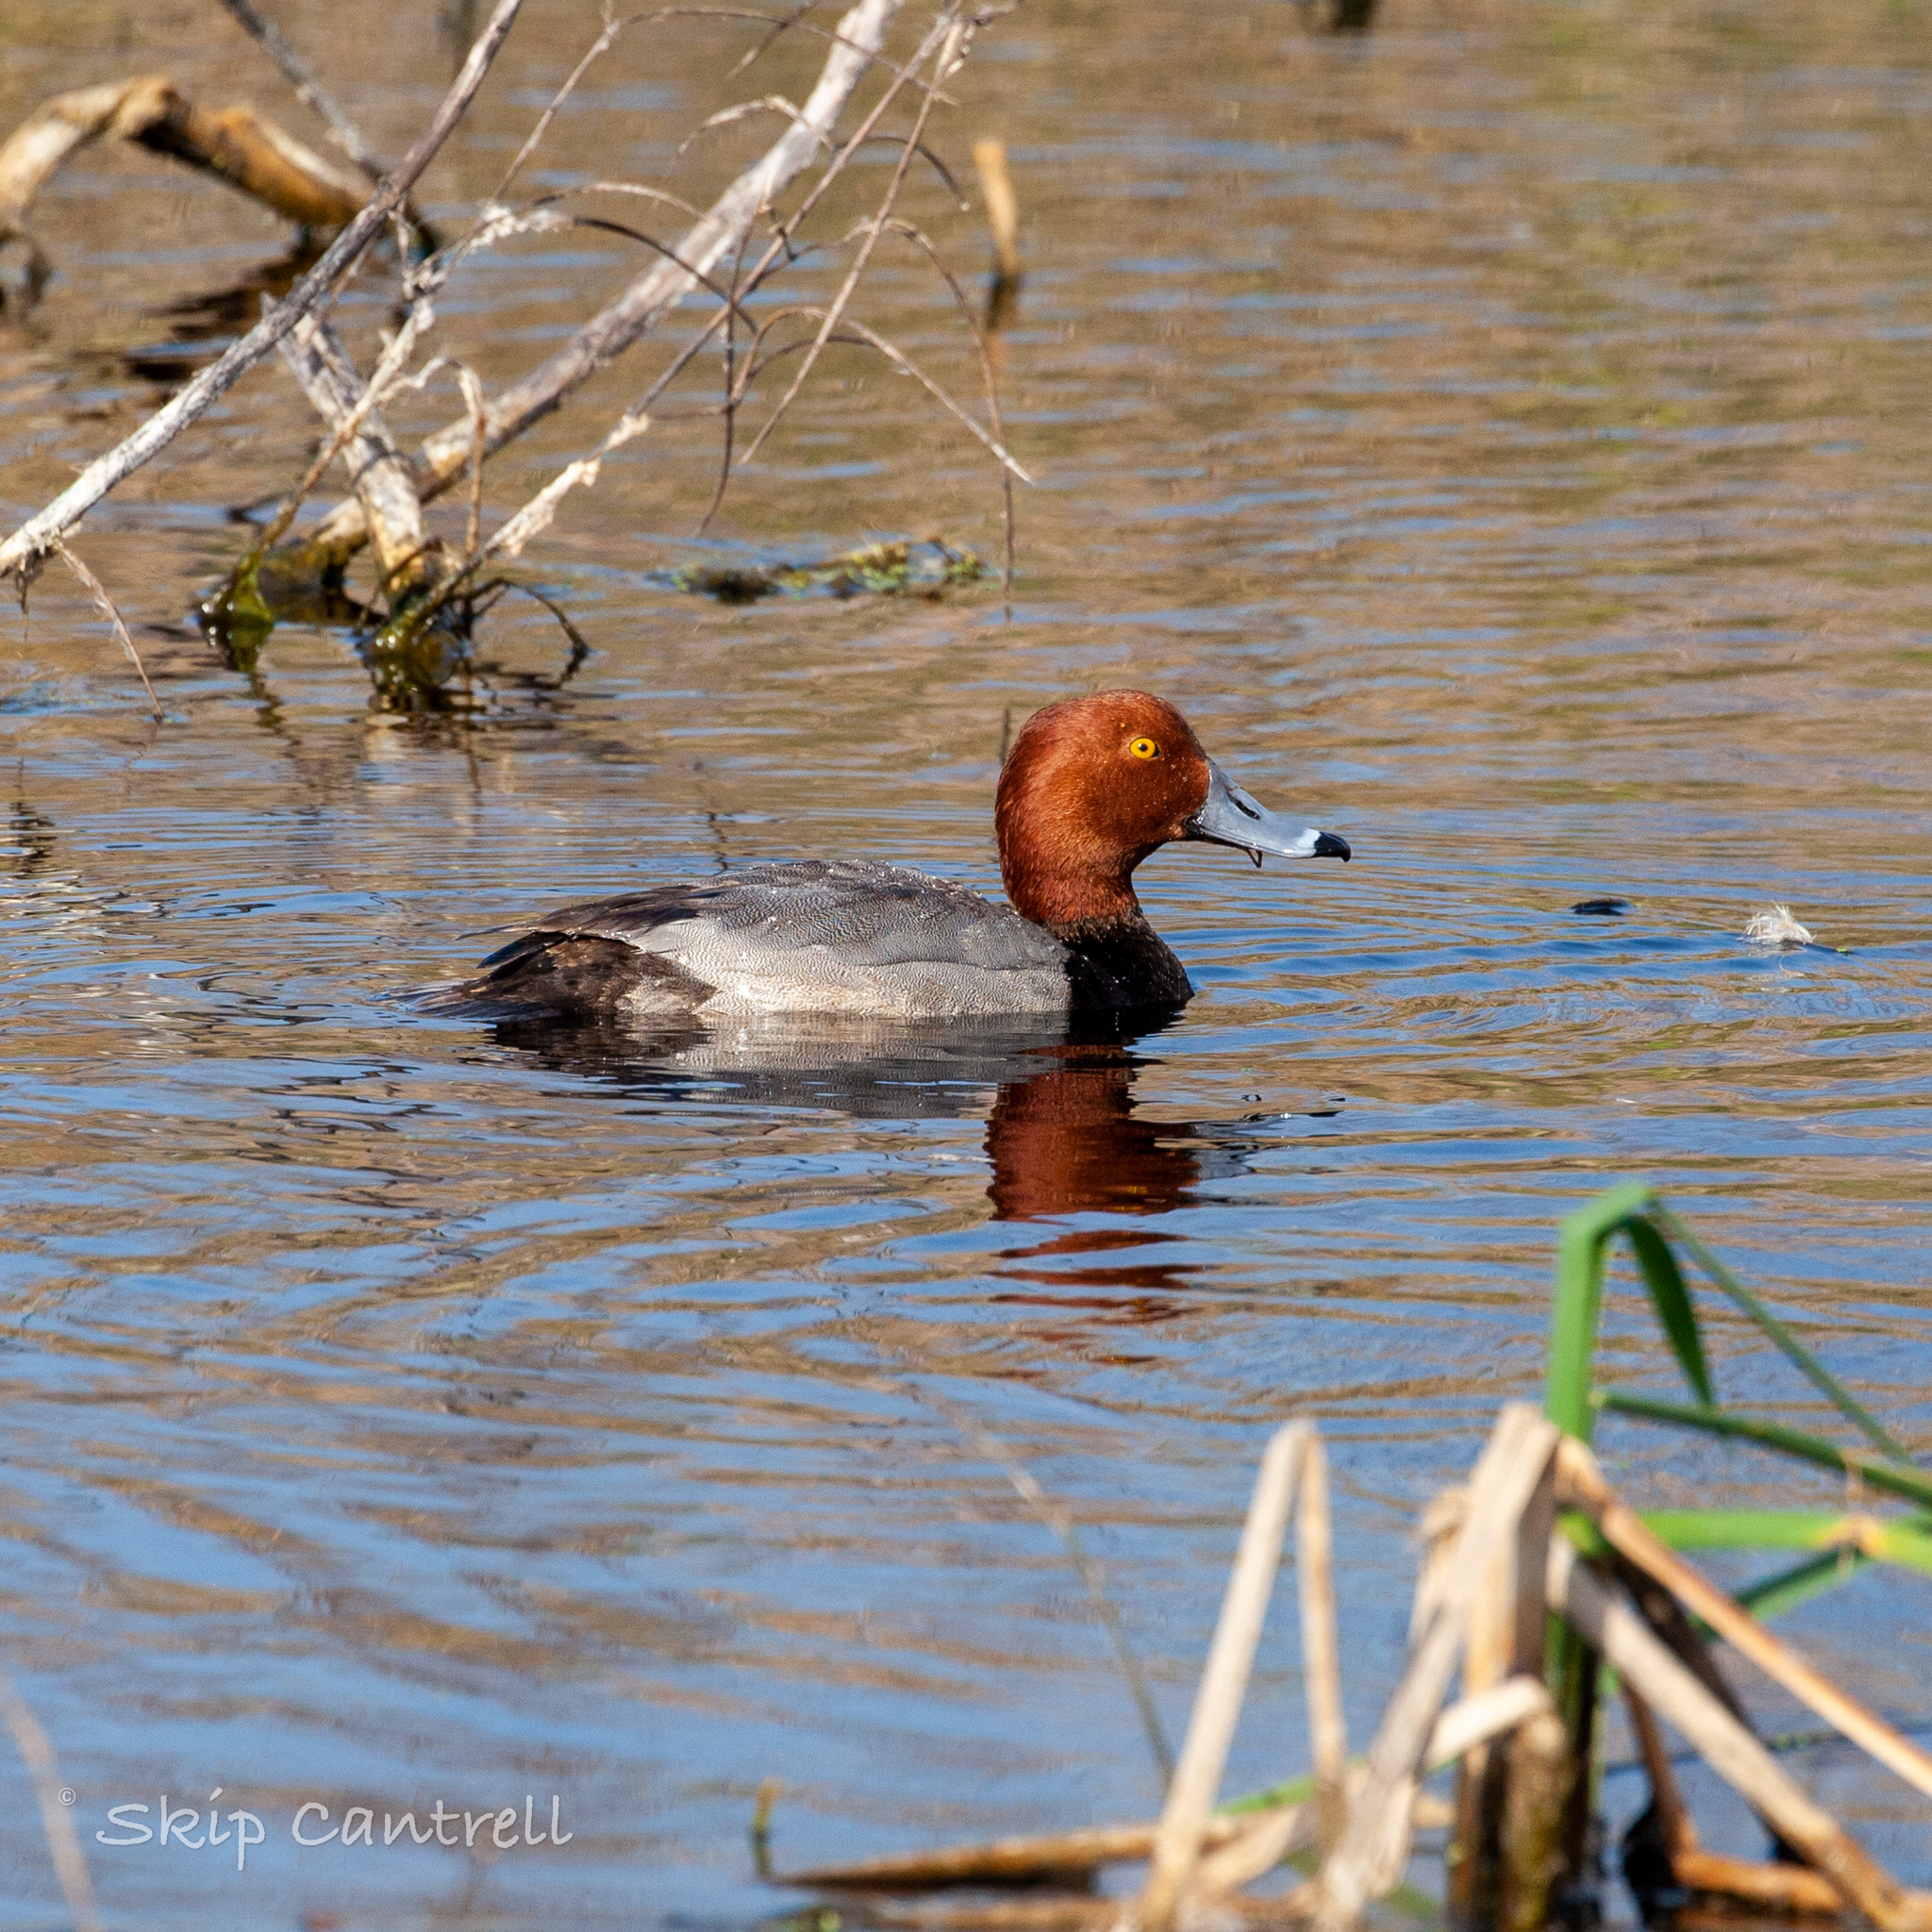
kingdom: Animalia
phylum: Chordata
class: Aves
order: Anseriformes
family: Anatidae
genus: Aythya
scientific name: Aythya americana
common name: Redhead
